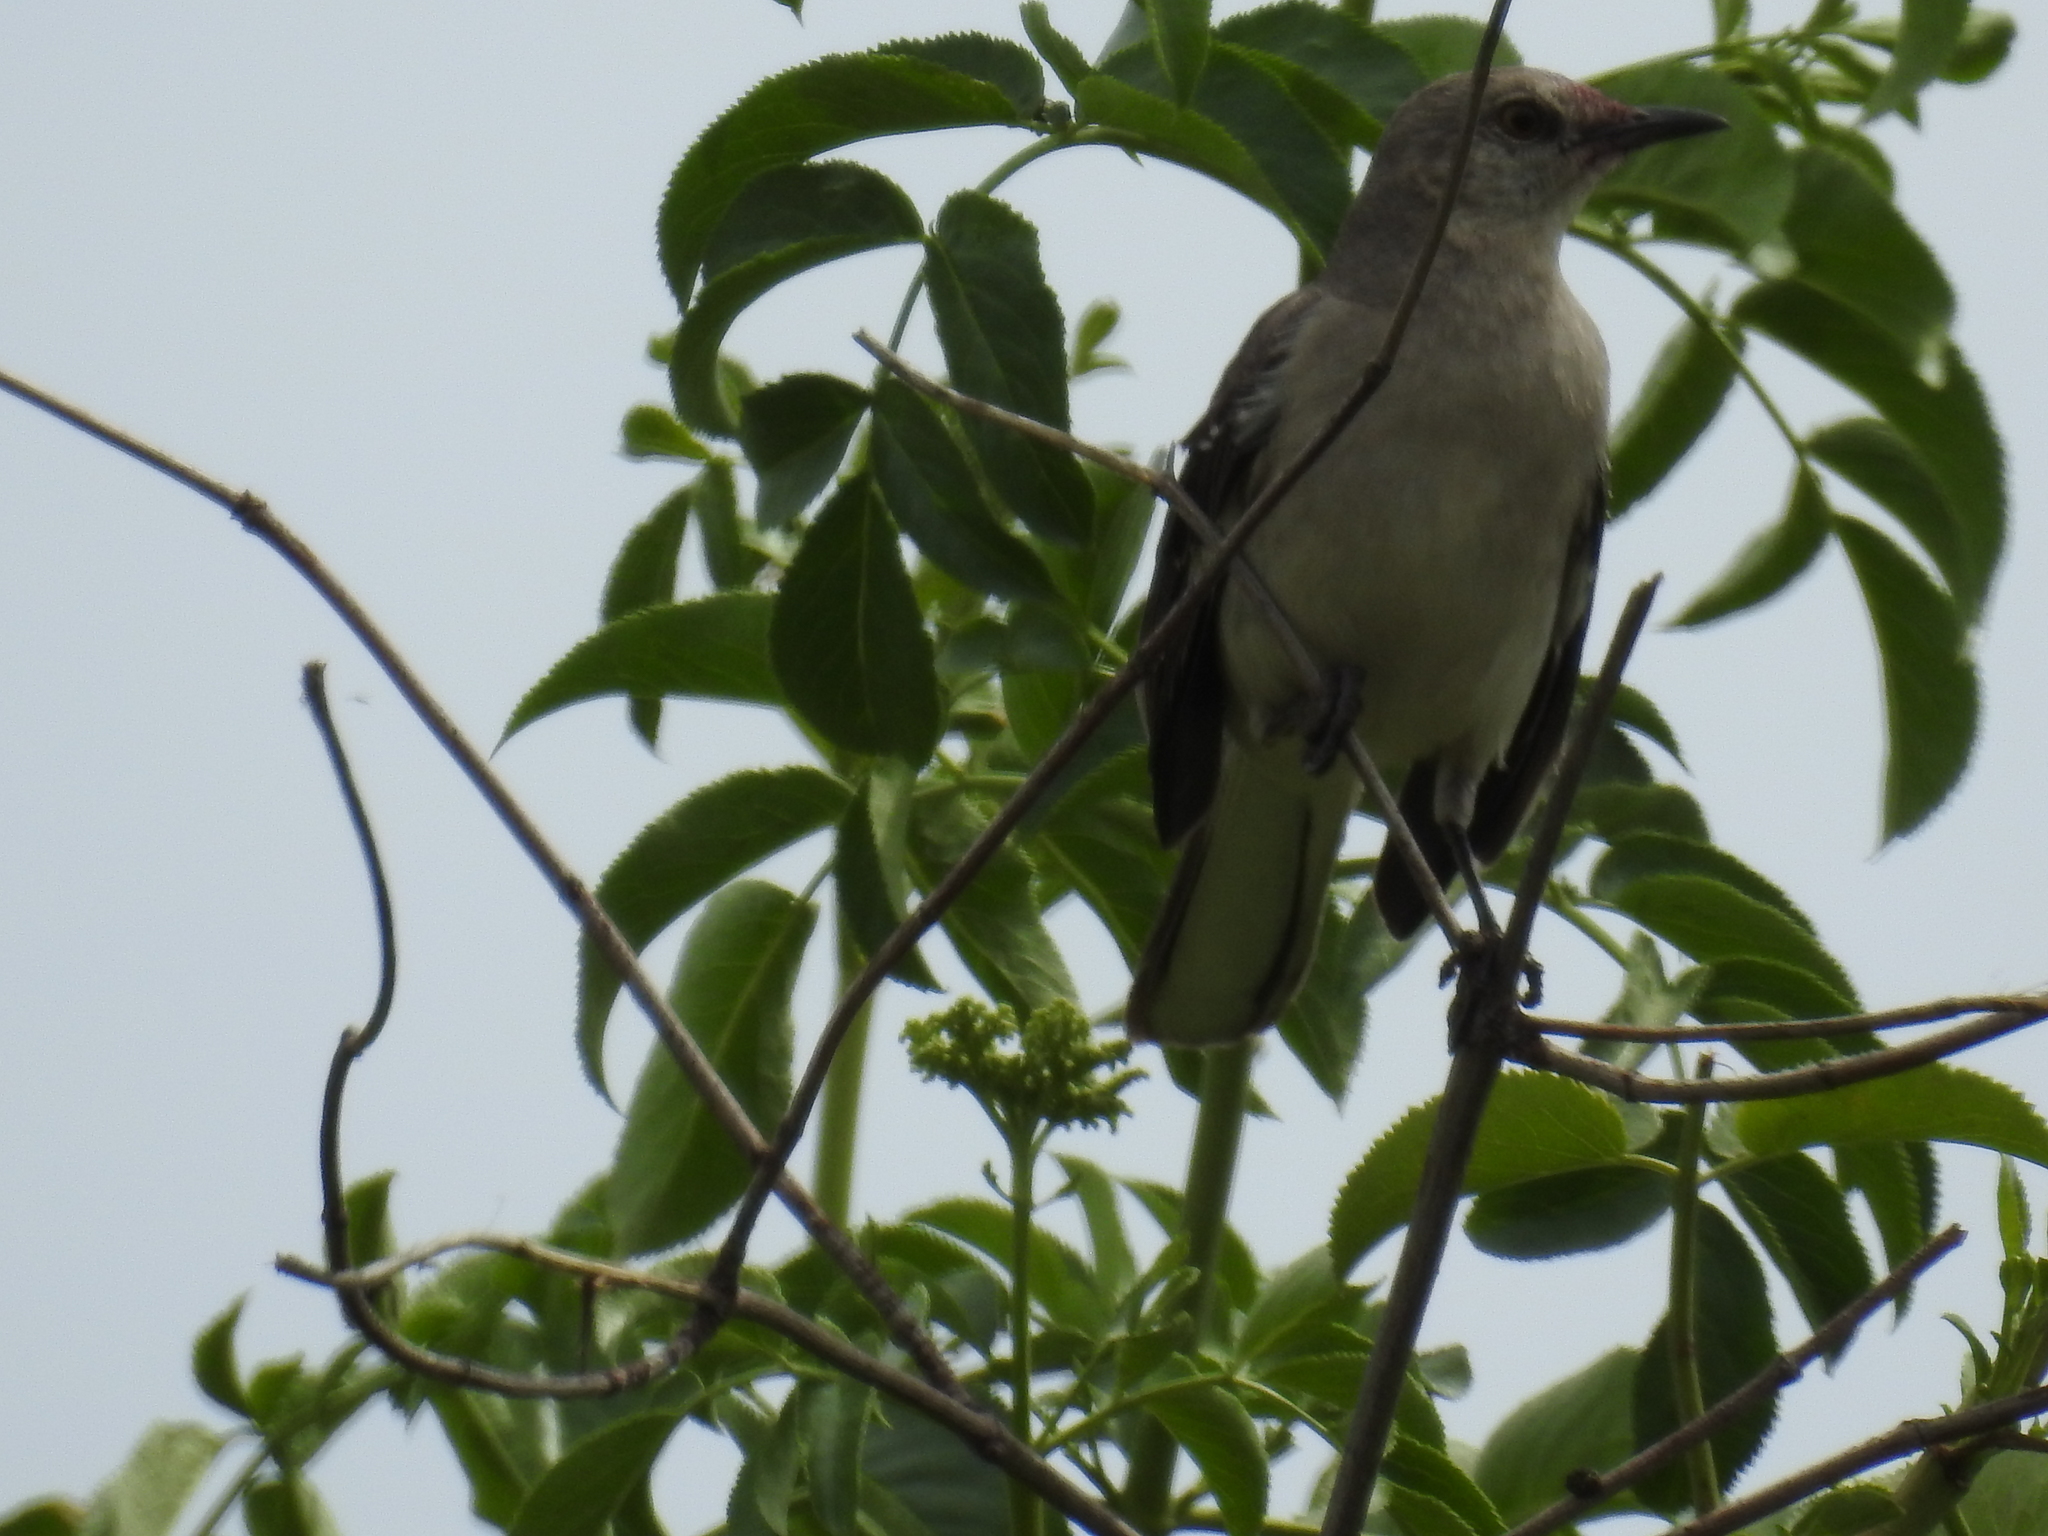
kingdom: Animalia
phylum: Chordata
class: Aves
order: Passeriformes
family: Mimidae
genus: Mimus
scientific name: Mimus polyglottos
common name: Northern mockingbird
